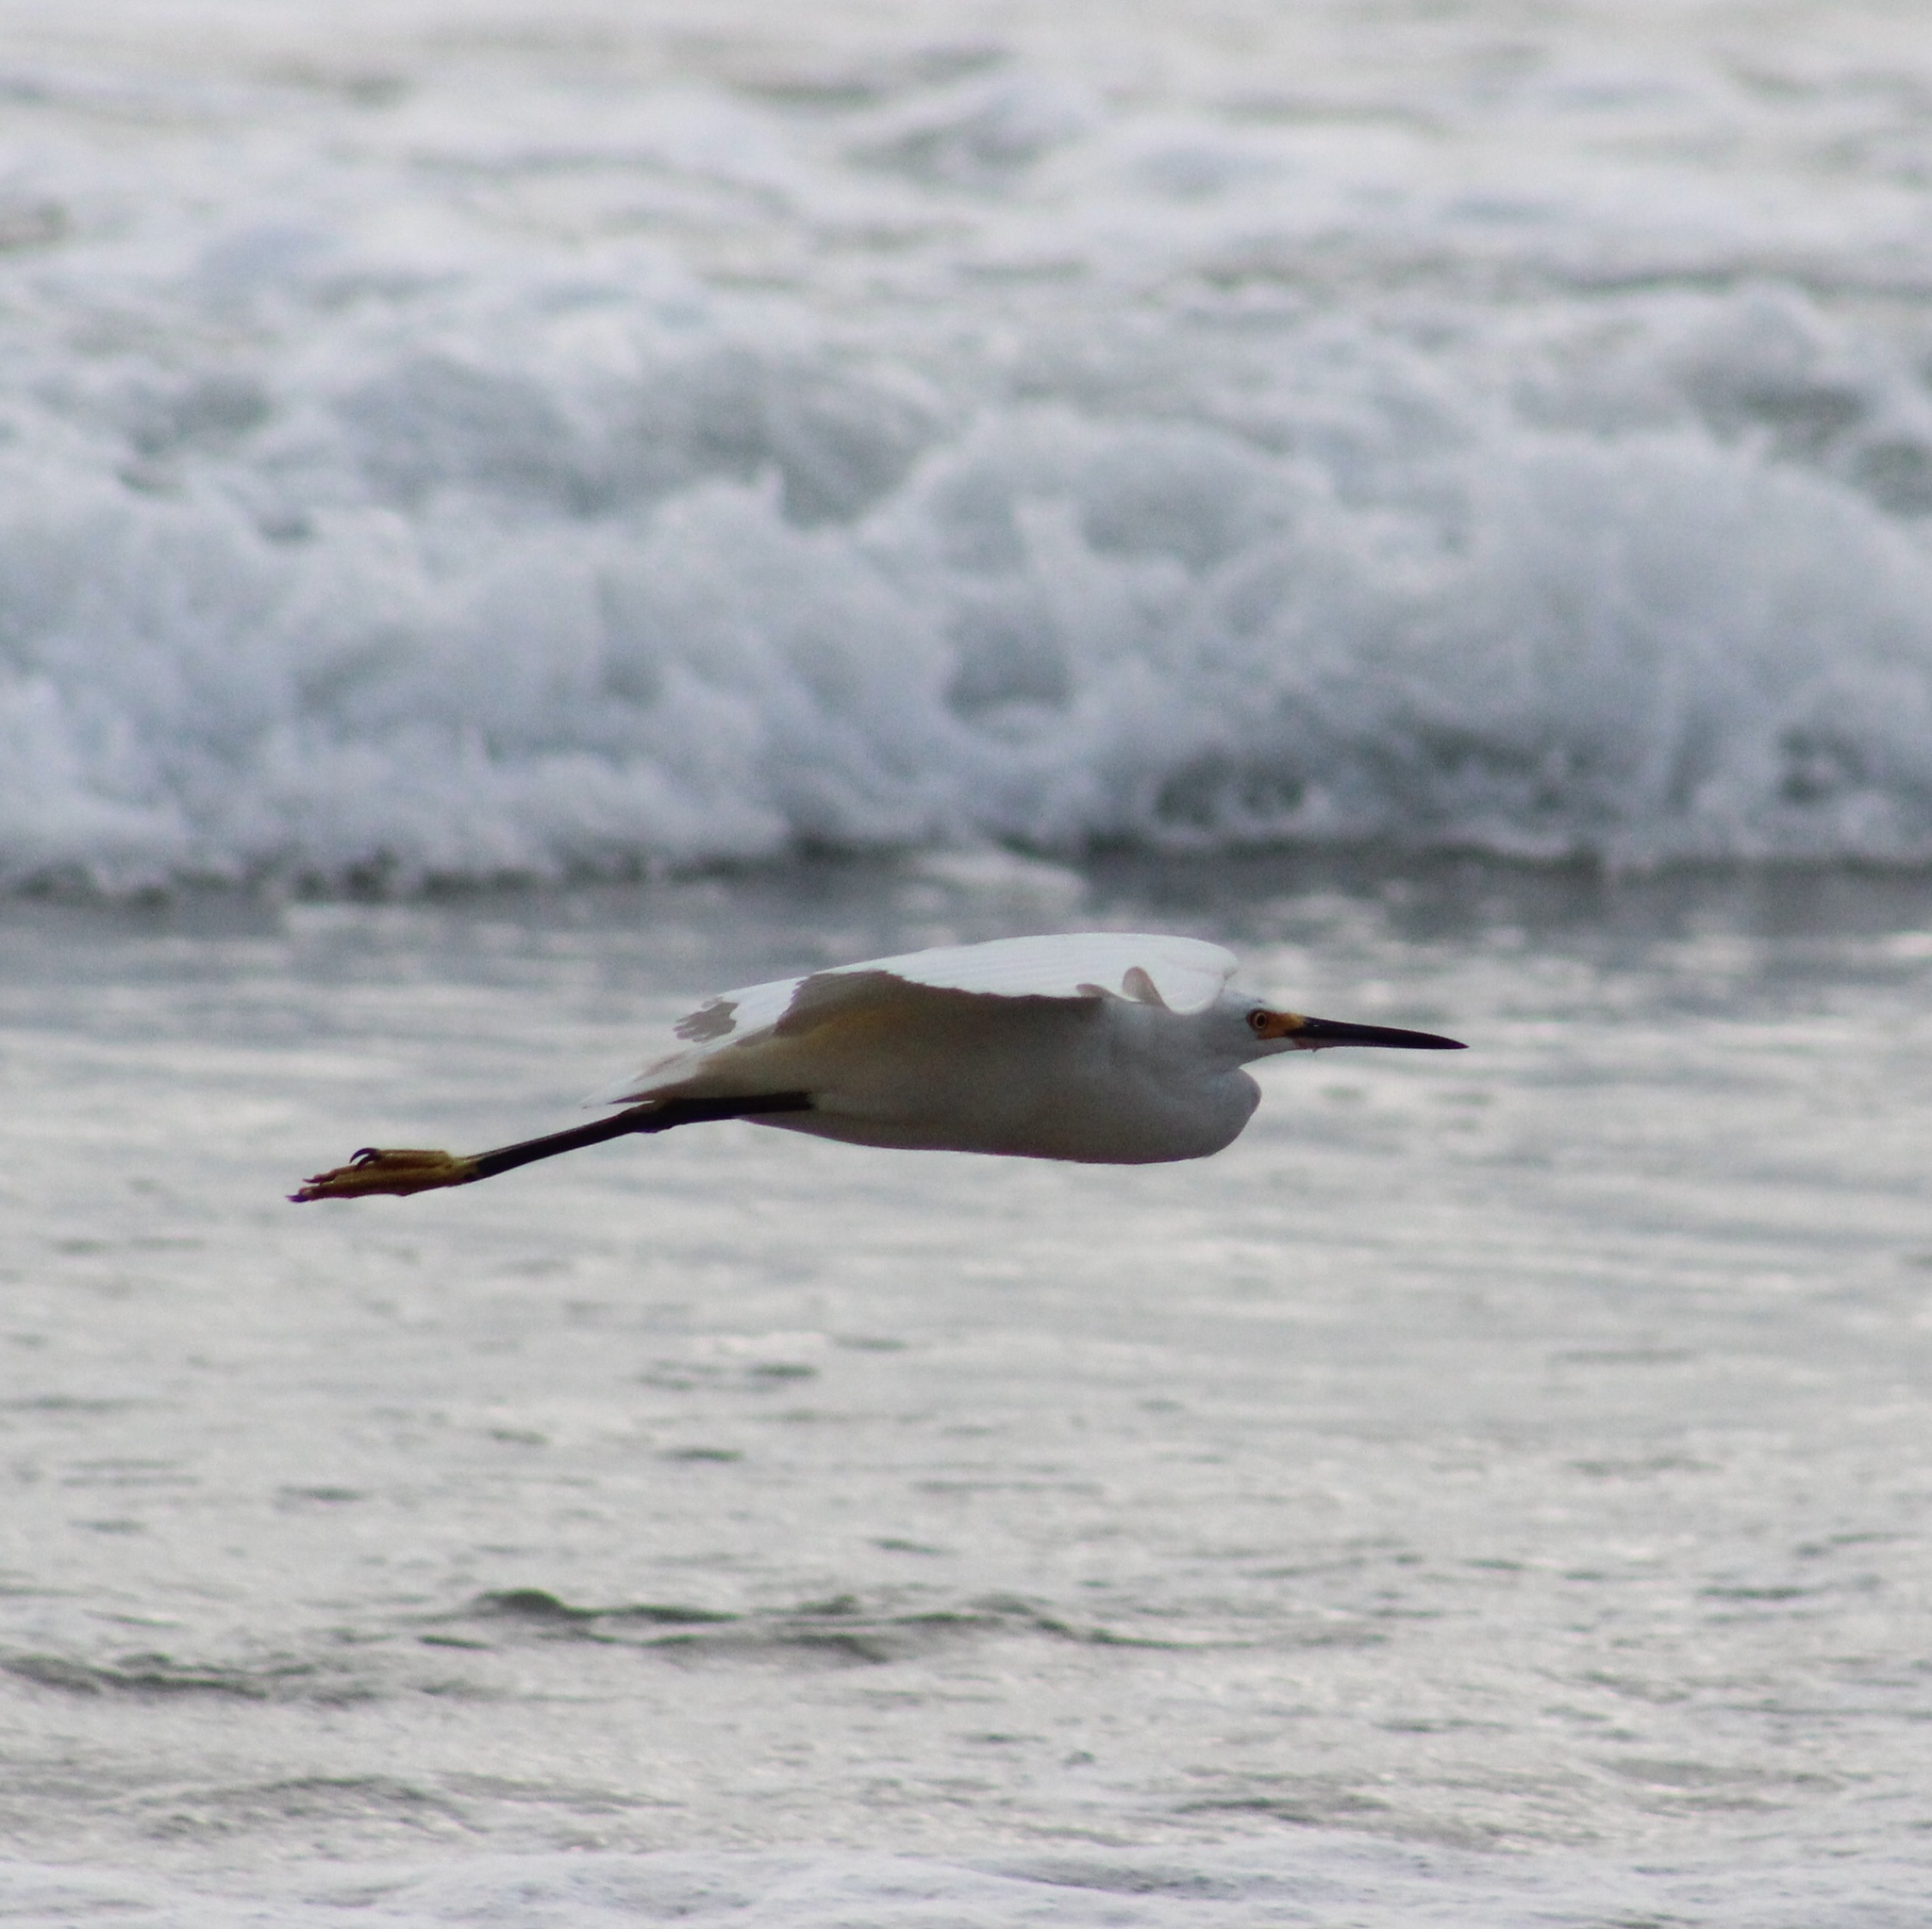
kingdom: Animalia
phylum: Chordata
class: Aves
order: Pelecaniformes
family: Ardeidae
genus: Egretta
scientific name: Egretta thula
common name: Snowy egret
